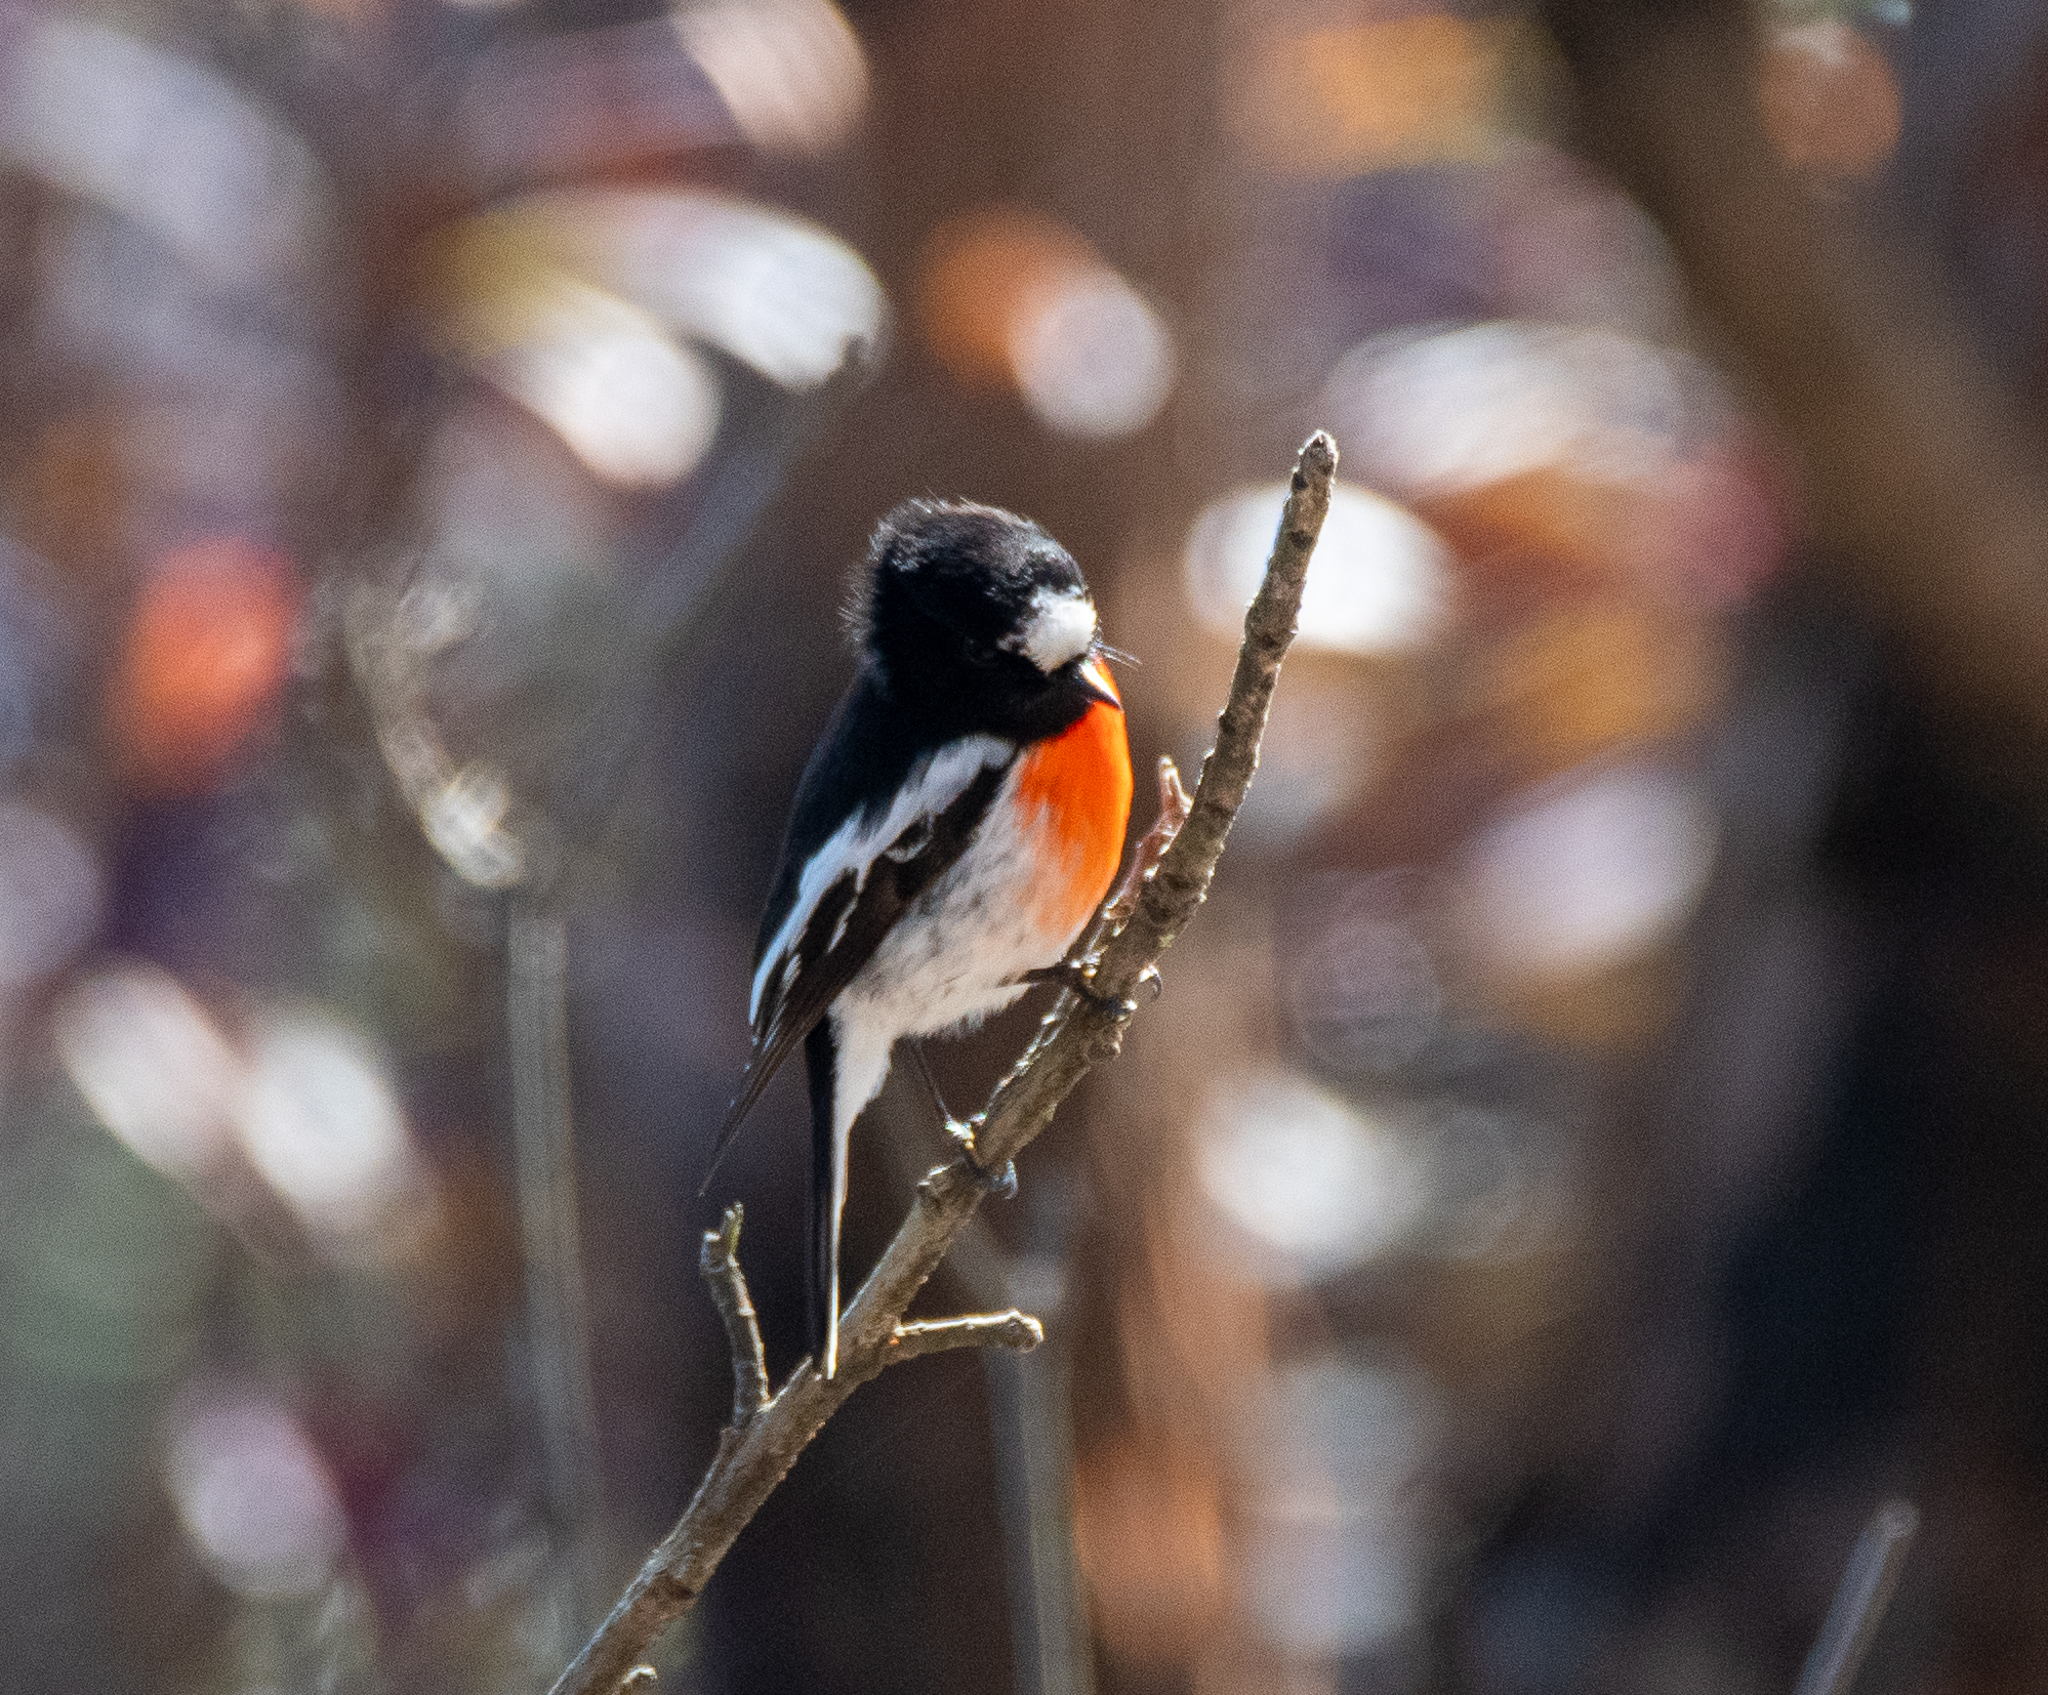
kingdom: Animalia
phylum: Chordata
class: Aves
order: Passeriformes
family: Petroicidae
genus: Petroica
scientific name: Petroica boodang
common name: Scarlet robin
